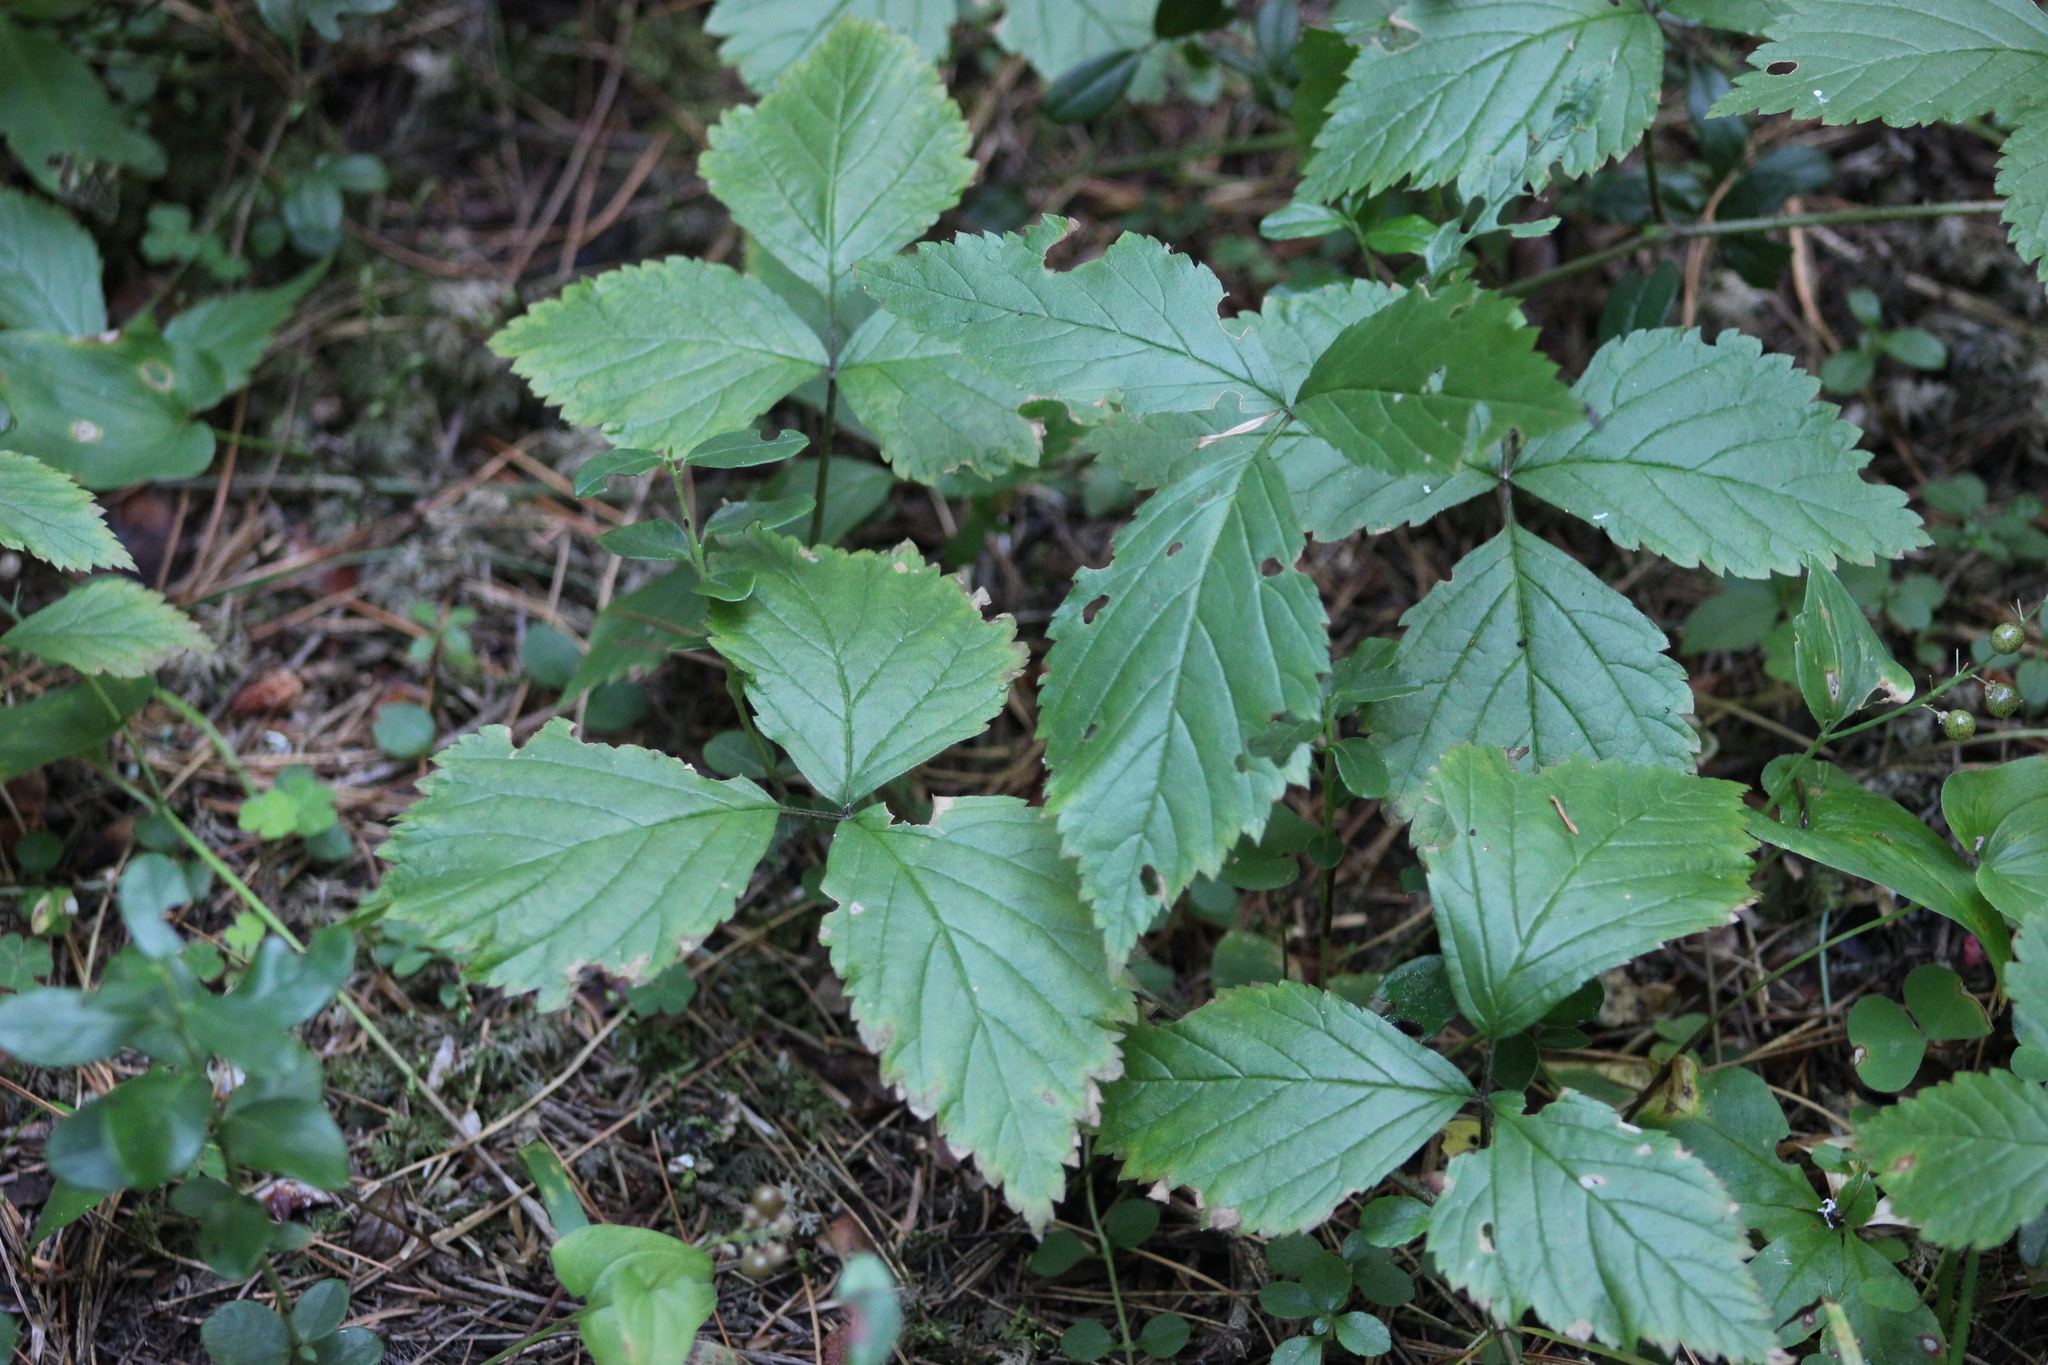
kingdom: Plantae
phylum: Tracheophyta
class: Magnoliopsida
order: Rosales
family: Rosaceae
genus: Rubus
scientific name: Rubus saxatilis
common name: Stone bramble
